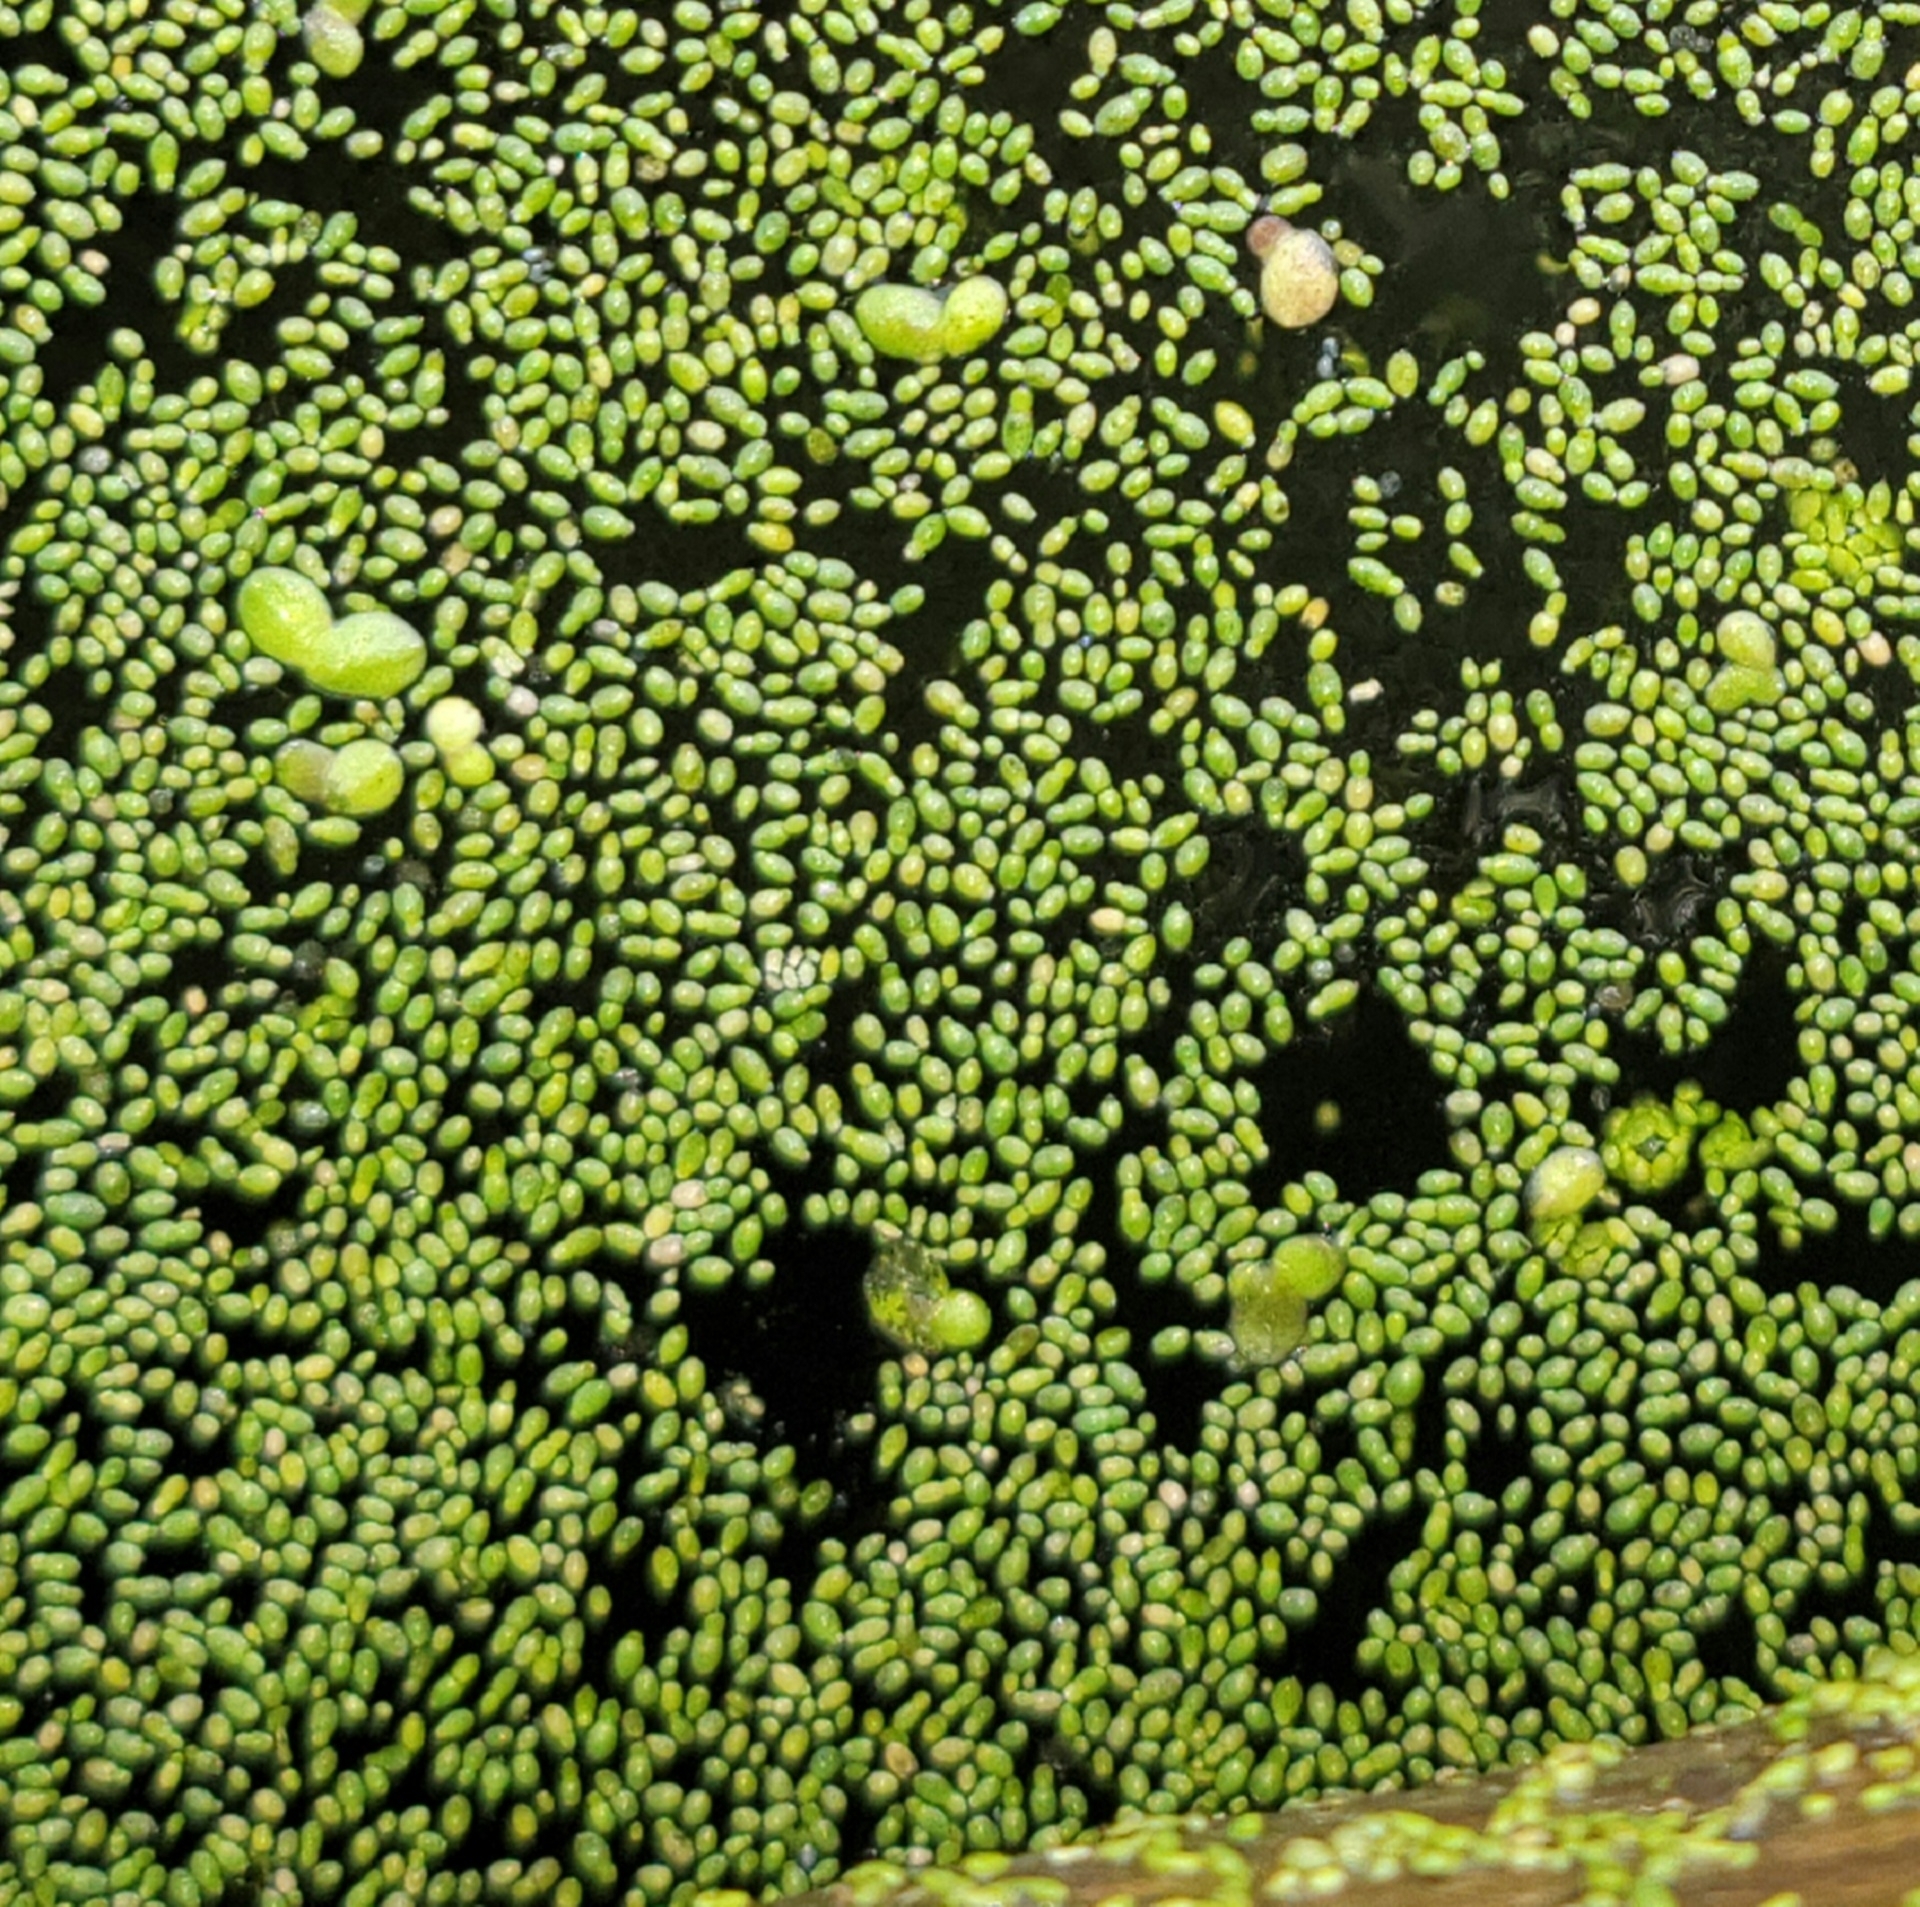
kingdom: Plantae
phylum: Tracheophyta
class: Liliopsida
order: Alismatales
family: Araceae
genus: Wolffia
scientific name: Wolffia brasiliensis
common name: Brazilian watermeal
